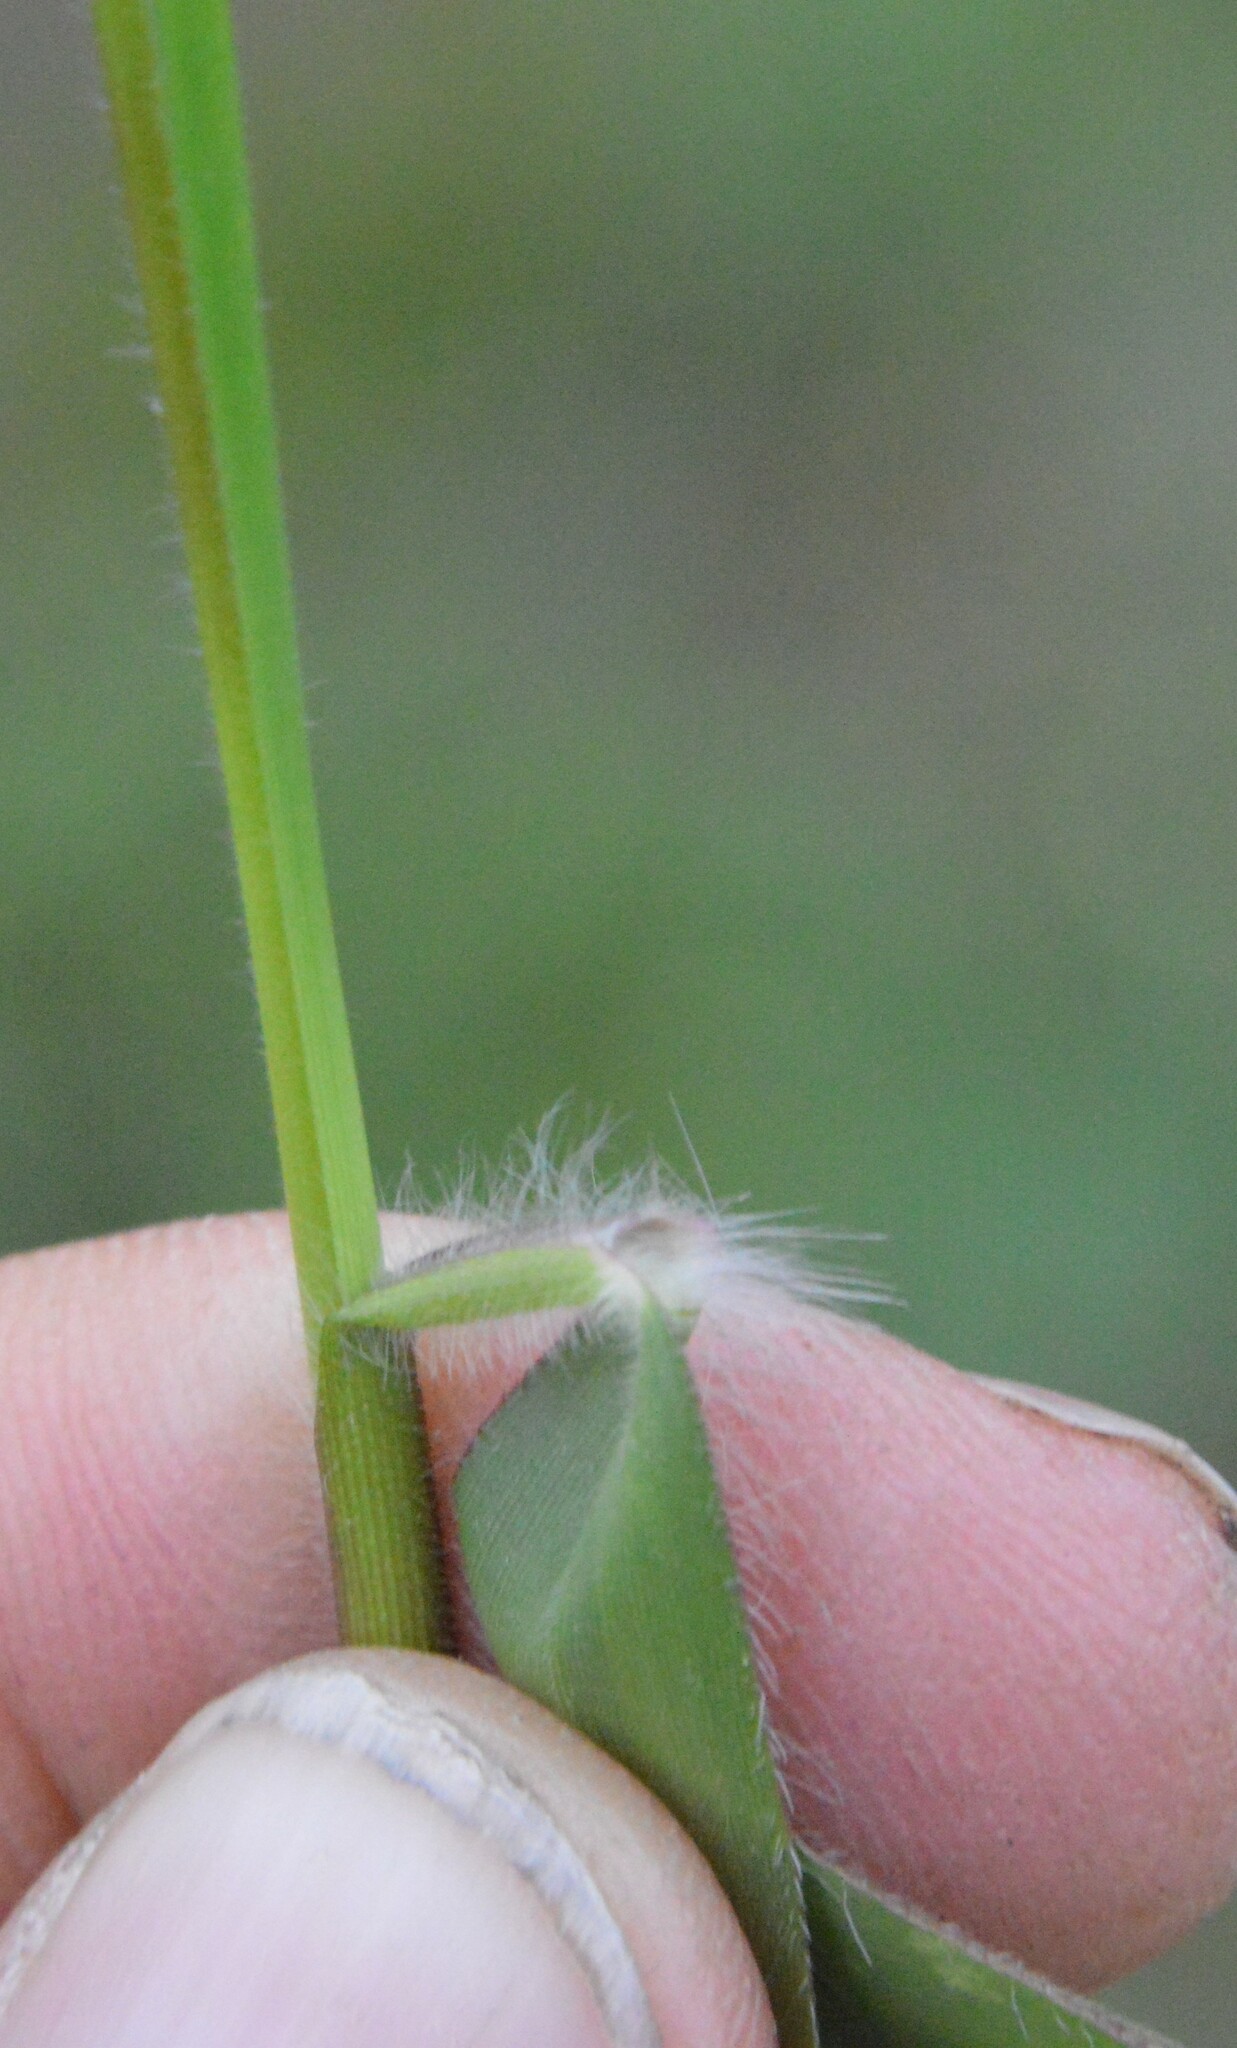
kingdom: Plantae
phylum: Tracheophyta
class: Liliopsida
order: Poales
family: Poaceae
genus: Dichanthelium
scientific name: Dichanthelium acuminatum
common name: Hairy panic grass
